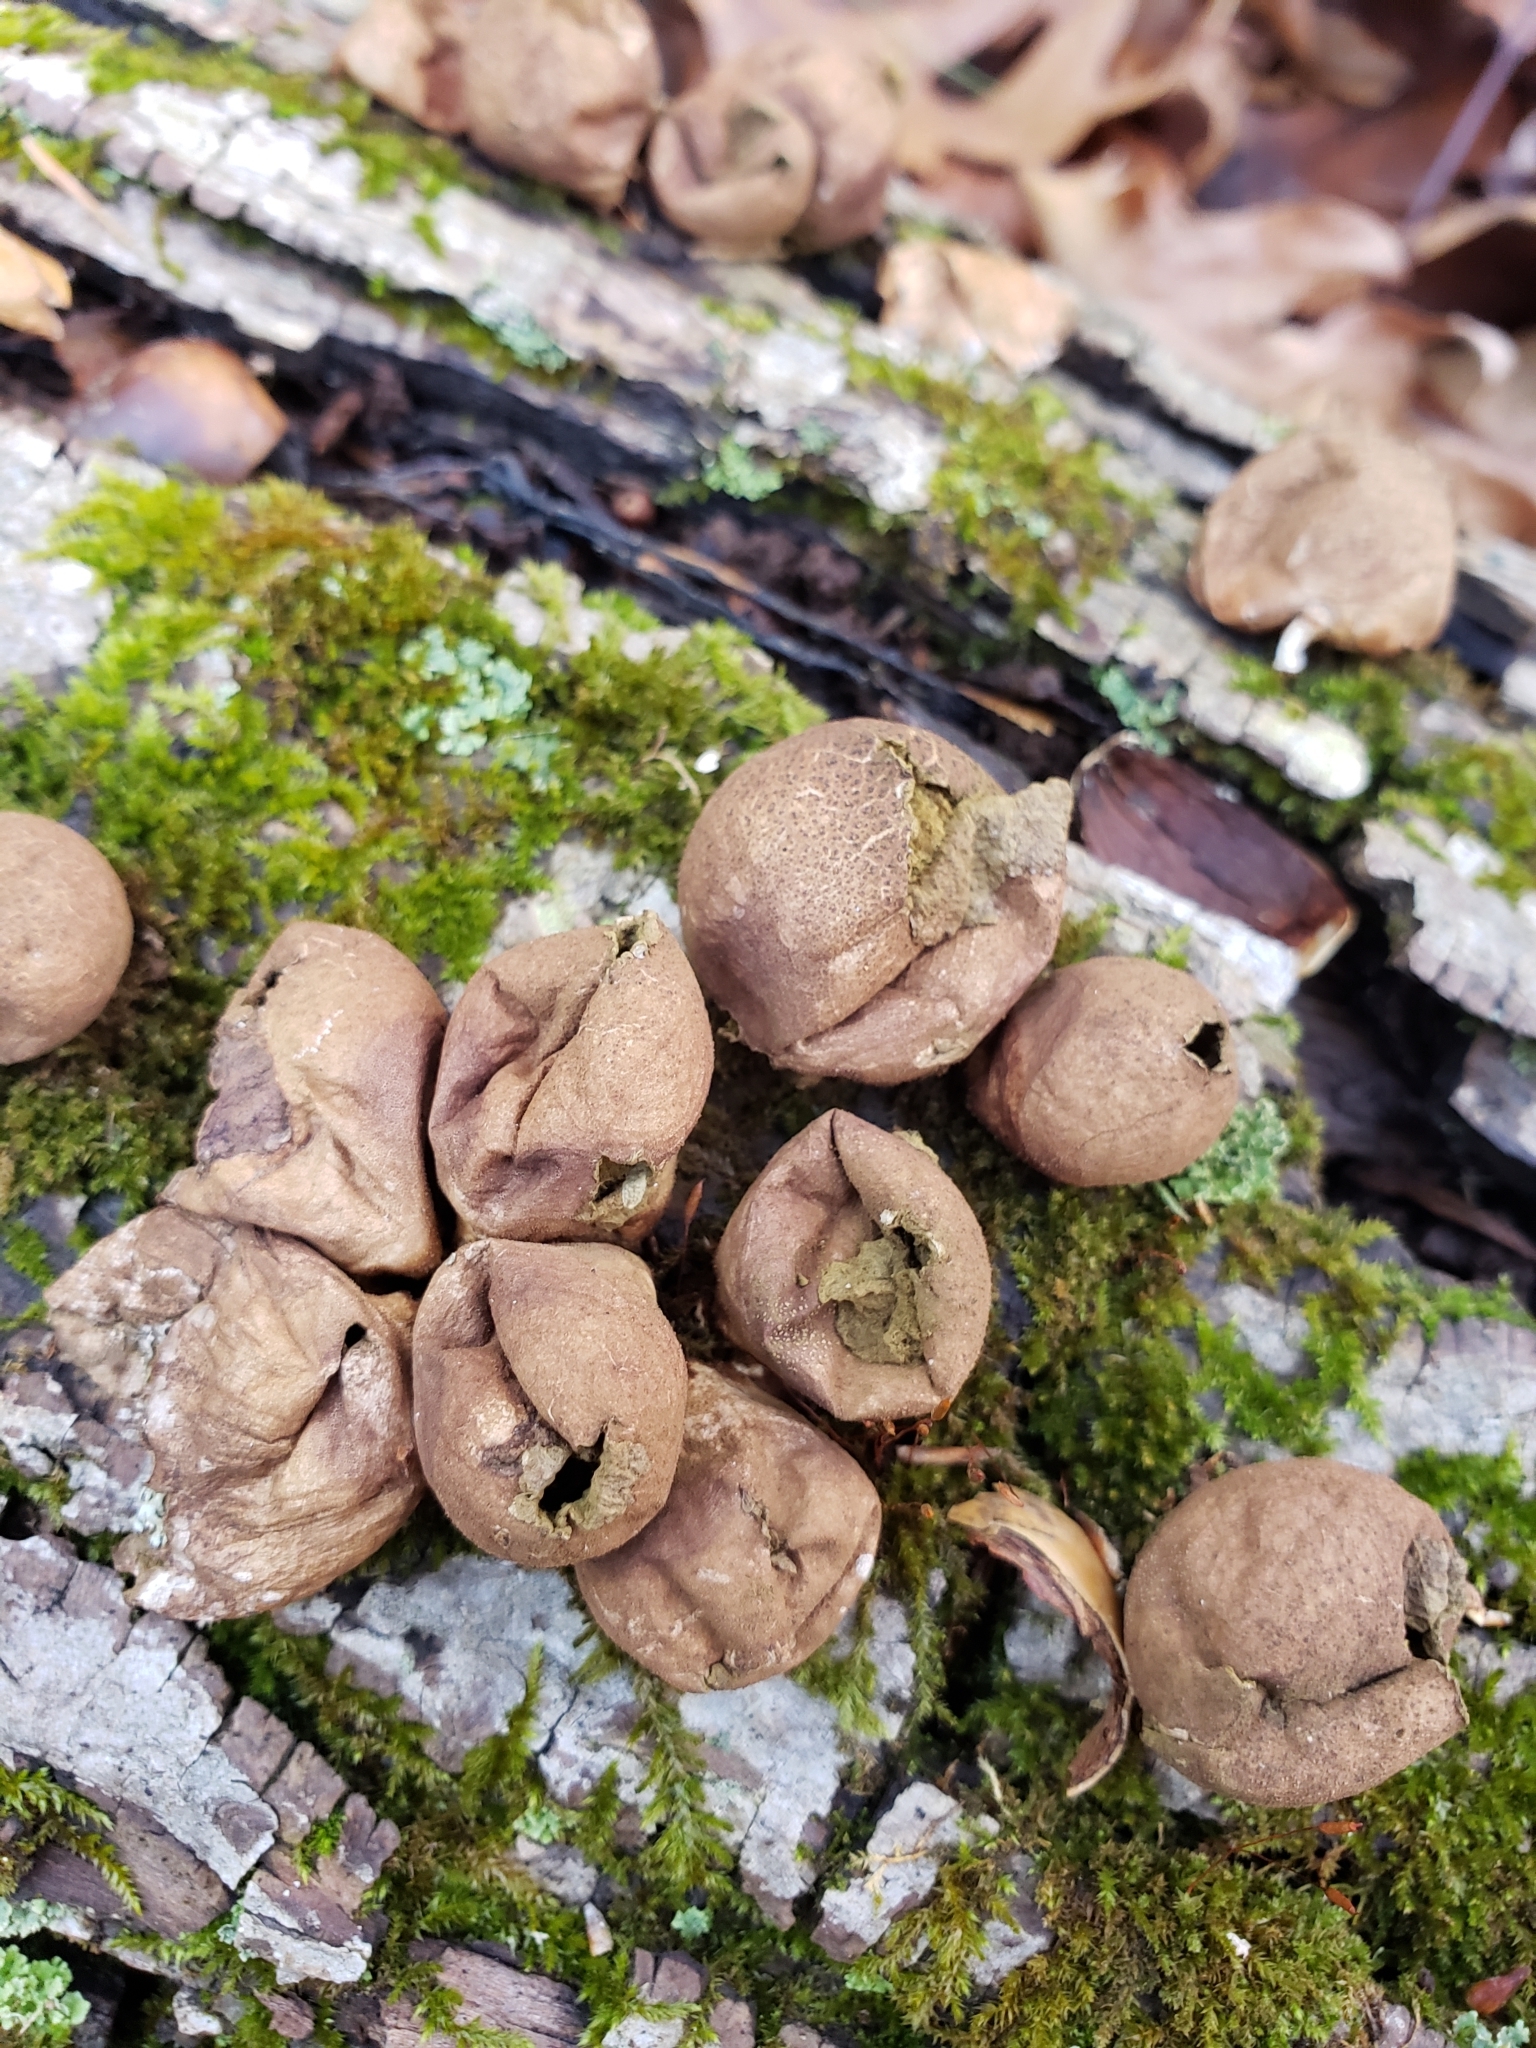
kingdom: Fungi
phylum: Basidiomycota
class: Agaricomycetes
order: Agaricales
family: Lycoperdaceae
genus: Apioperdon
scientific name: Apioperdon pyriforme
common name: Pear-shaped puffball
